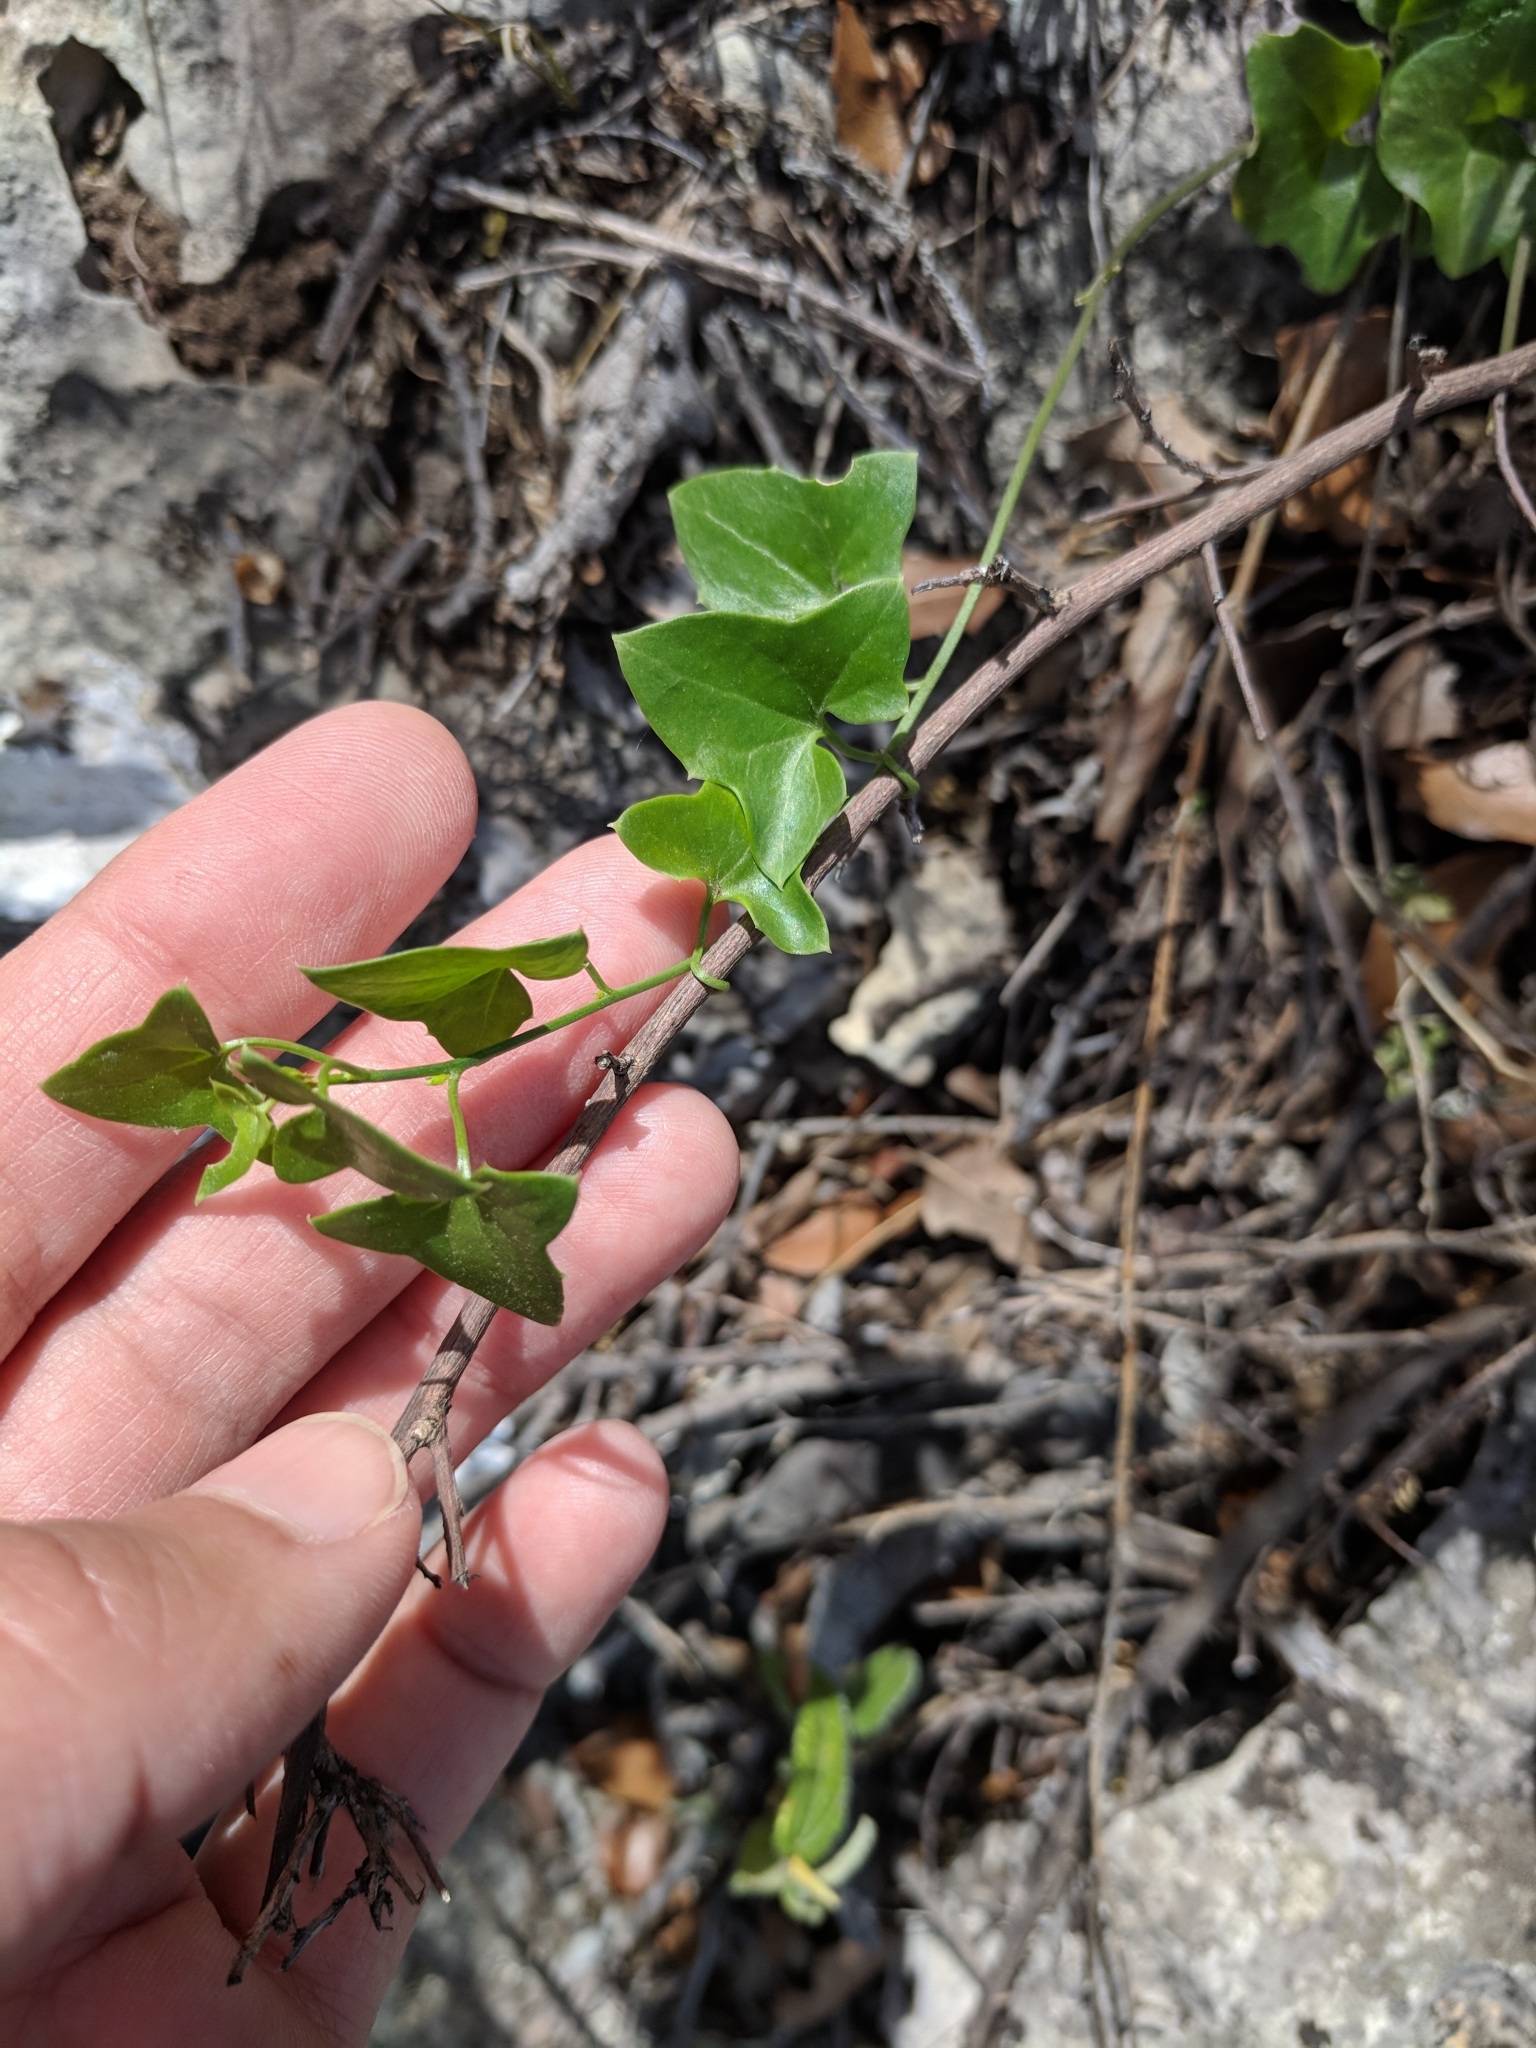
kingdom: Plantae
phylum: Tracheophyta
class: Magnoliopsida
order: Lamiales
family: Plantaginaceae
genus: Maurandella
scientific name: Maurandella antirrhiniflora
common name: Violet twining-snapdragon
